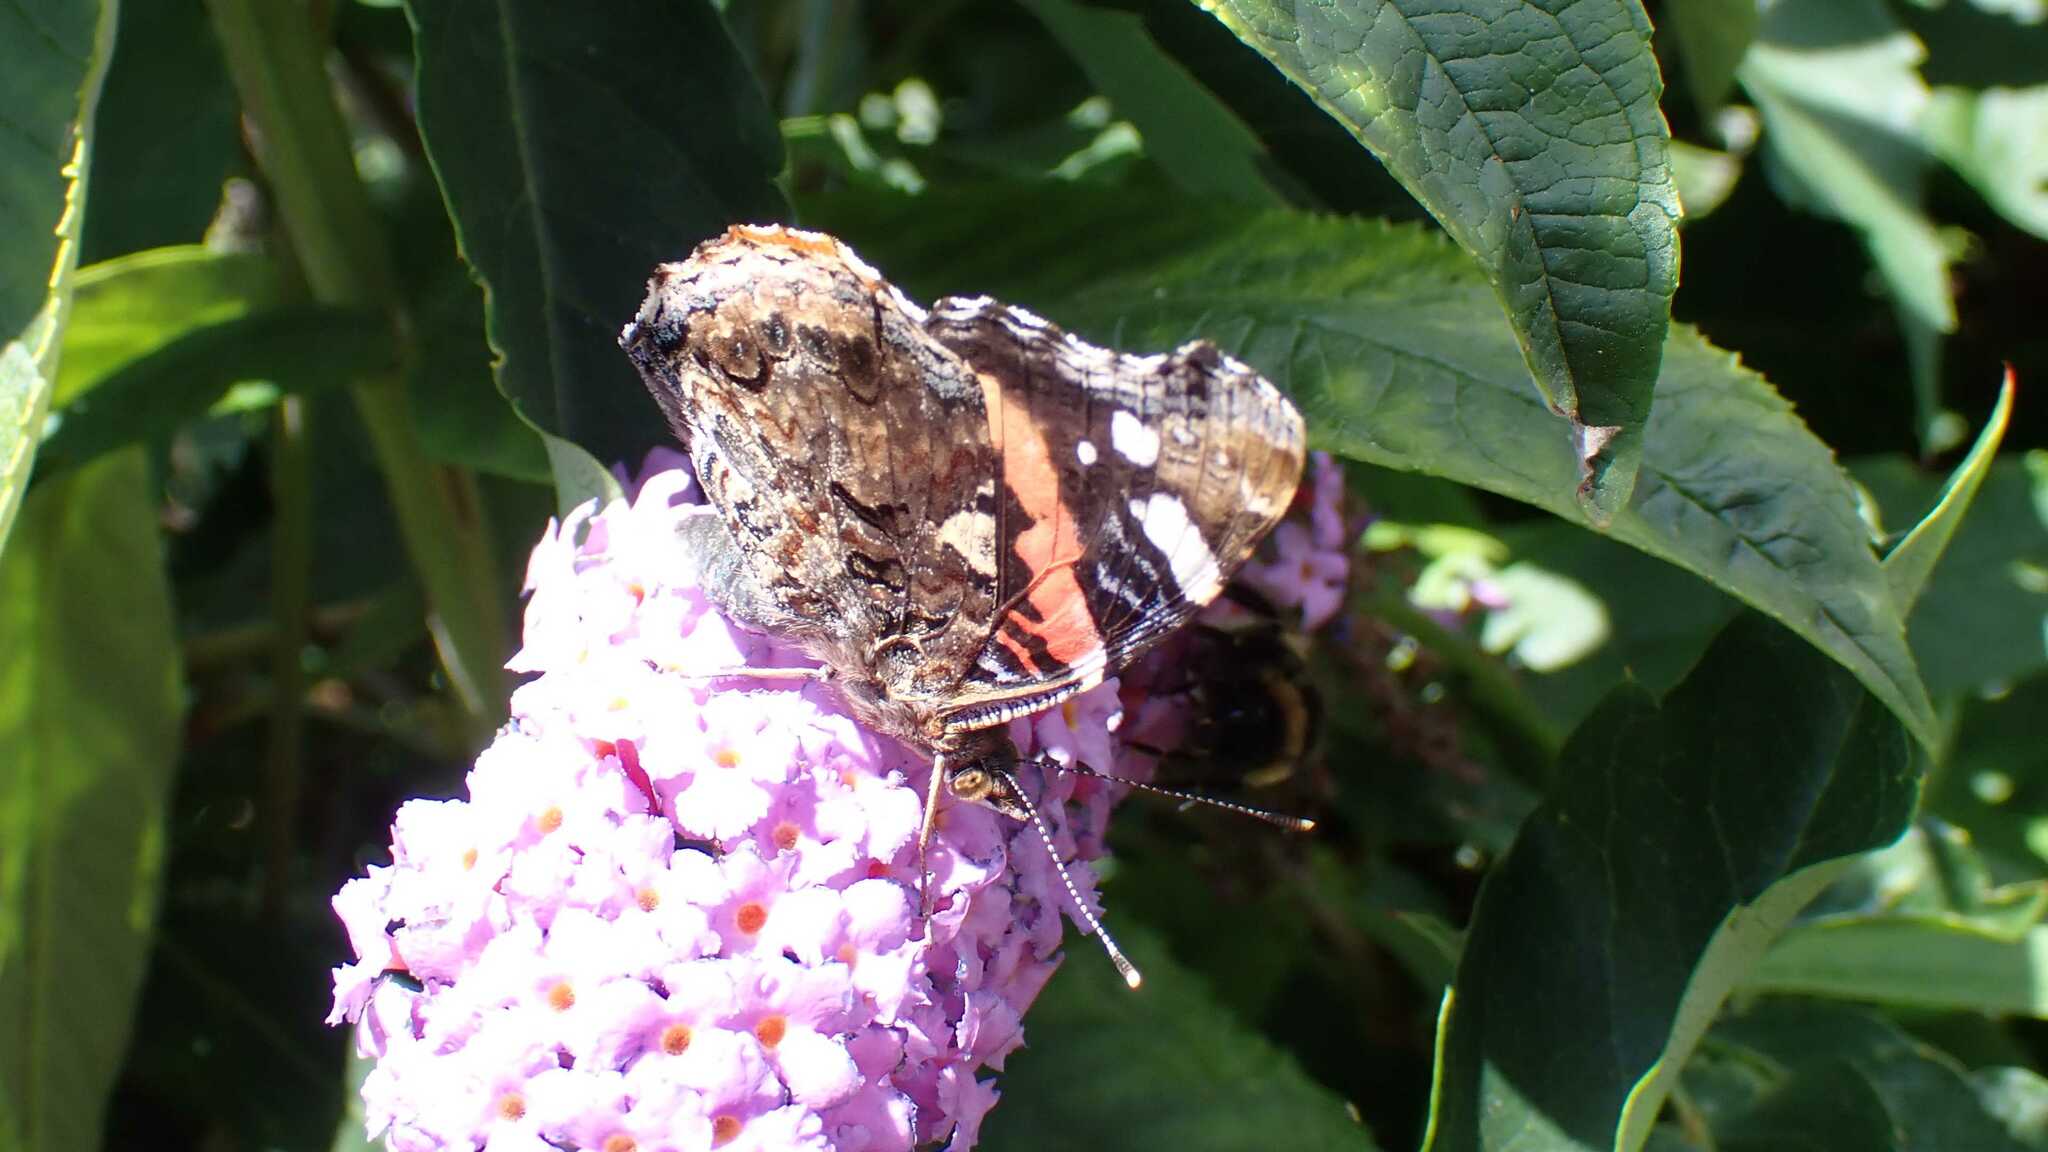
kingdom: Animalia
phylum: Arthropoda
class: Insecta
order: Lepidoptera
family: Nymphalidae
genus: Vanessa
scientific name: Vanessa atalanta
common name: Red admiral
